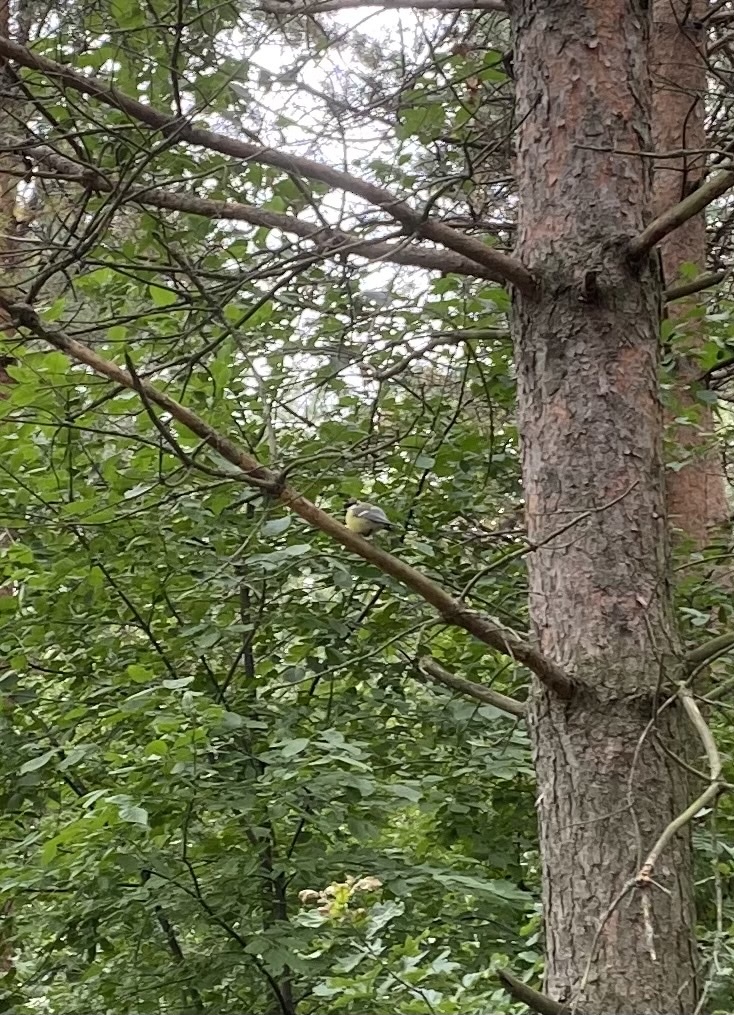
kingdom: Animalia
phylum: Chordata
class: Aves
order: Passeriformes
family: Paridae
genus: Parus
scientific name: Parus major
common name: Great tit
